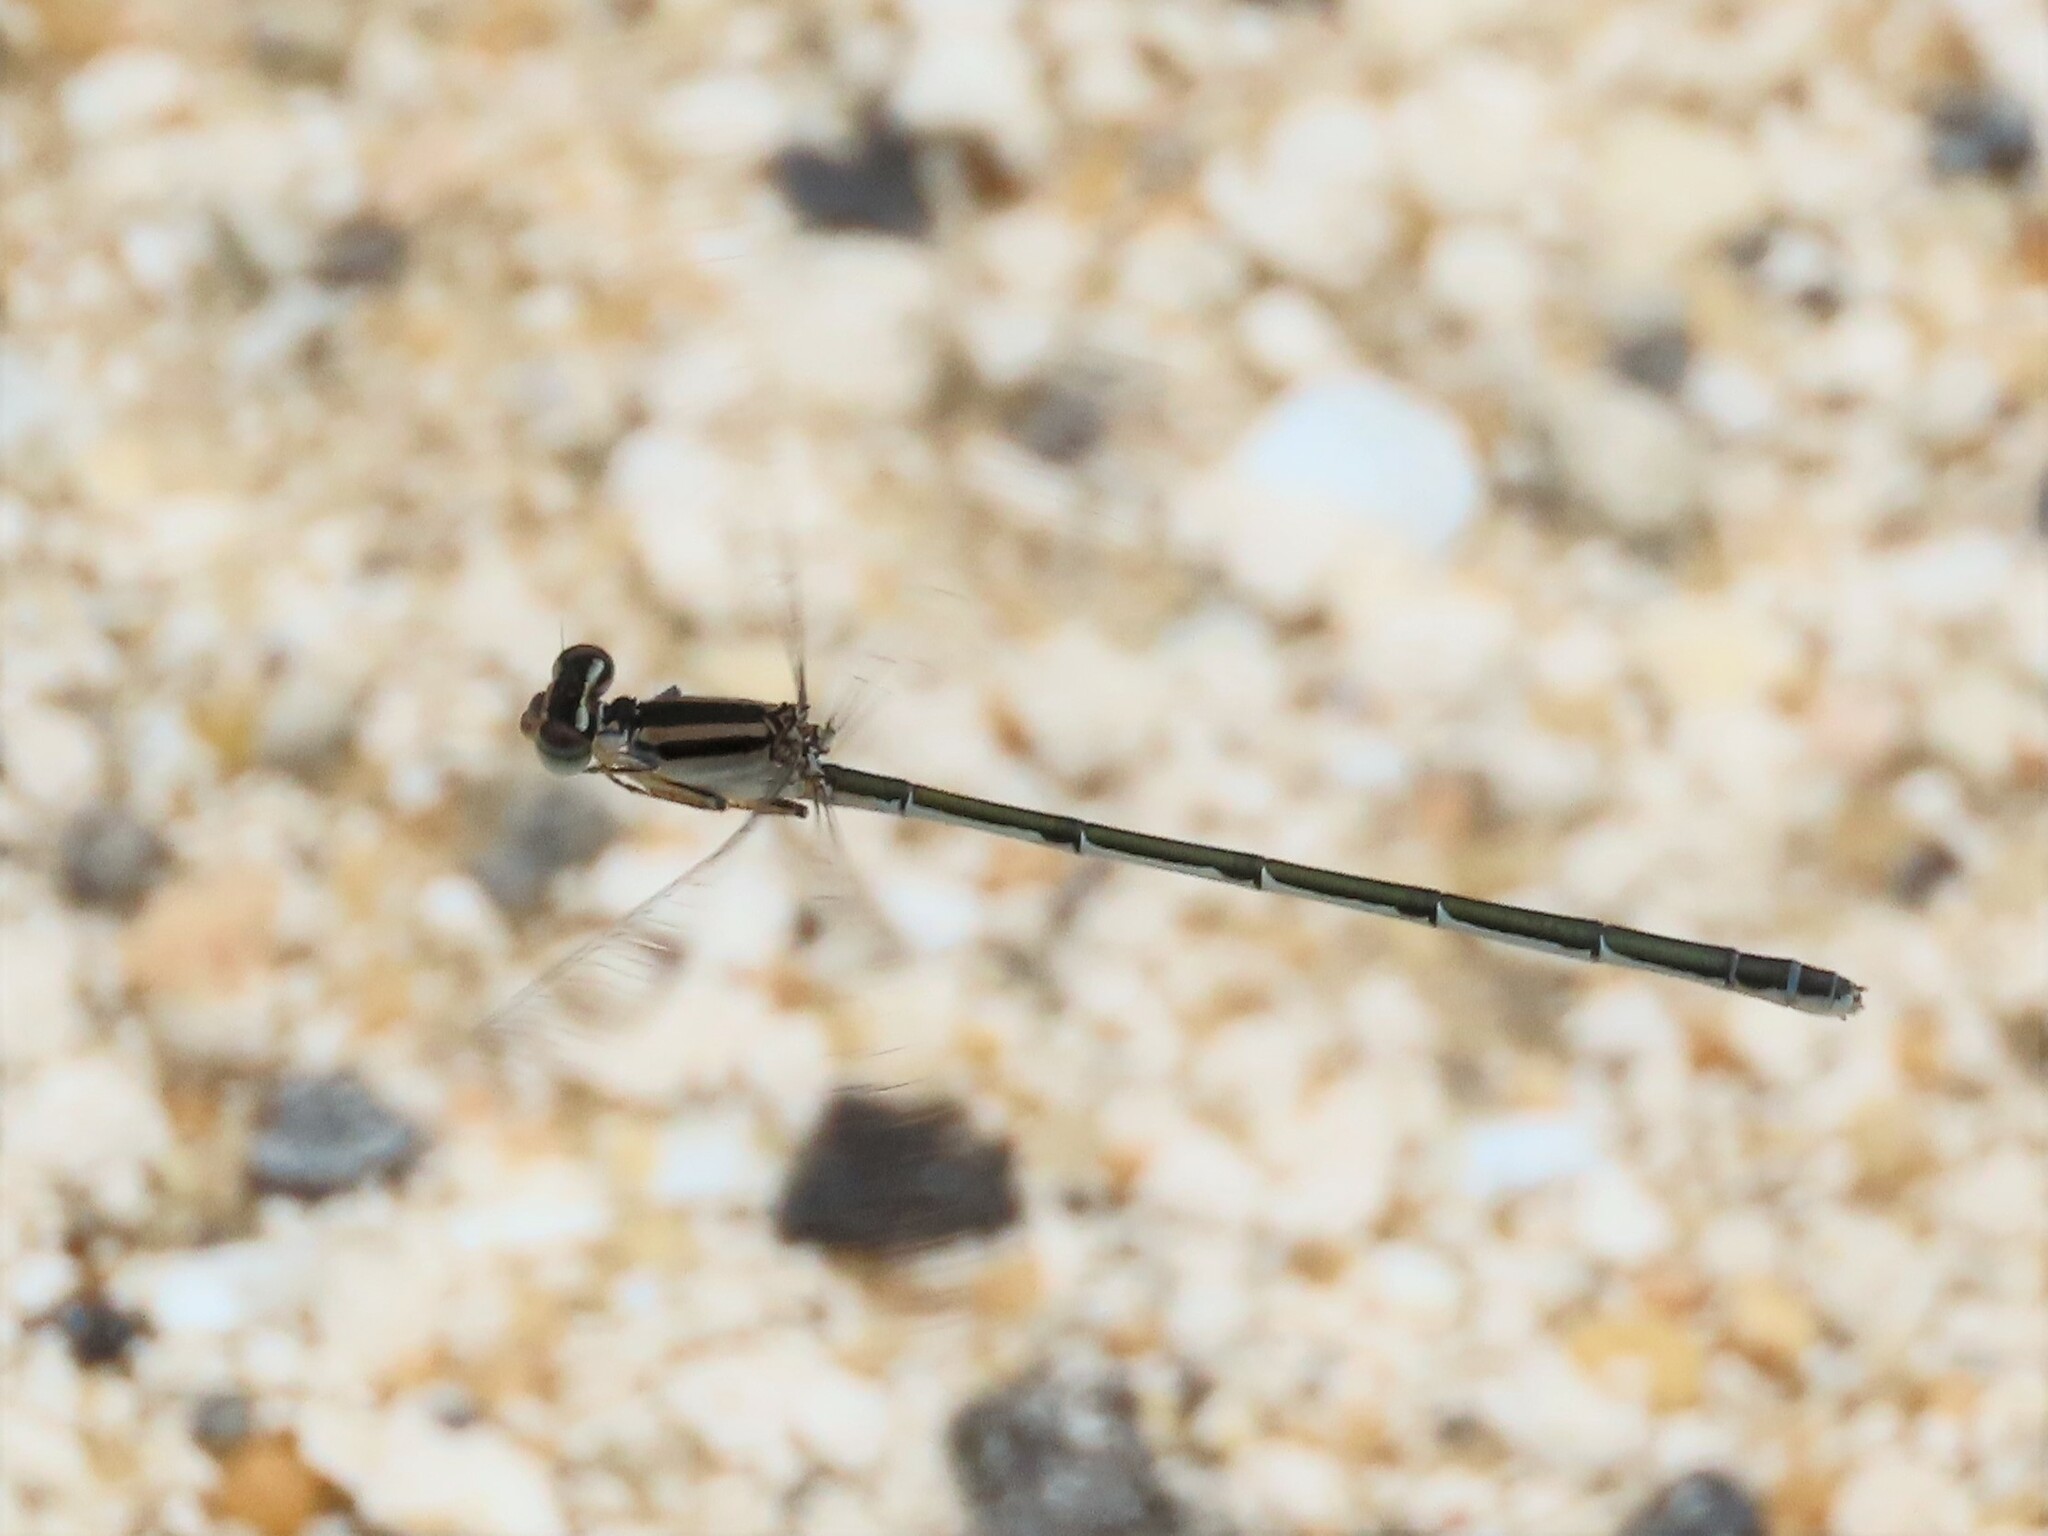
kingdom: Animalia
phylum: Arthropoda
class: Insecta
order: Odonata
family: Coenagrionidae
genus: Enallagma
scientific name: Enallagma doubledayi
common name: Atlantic bluet
